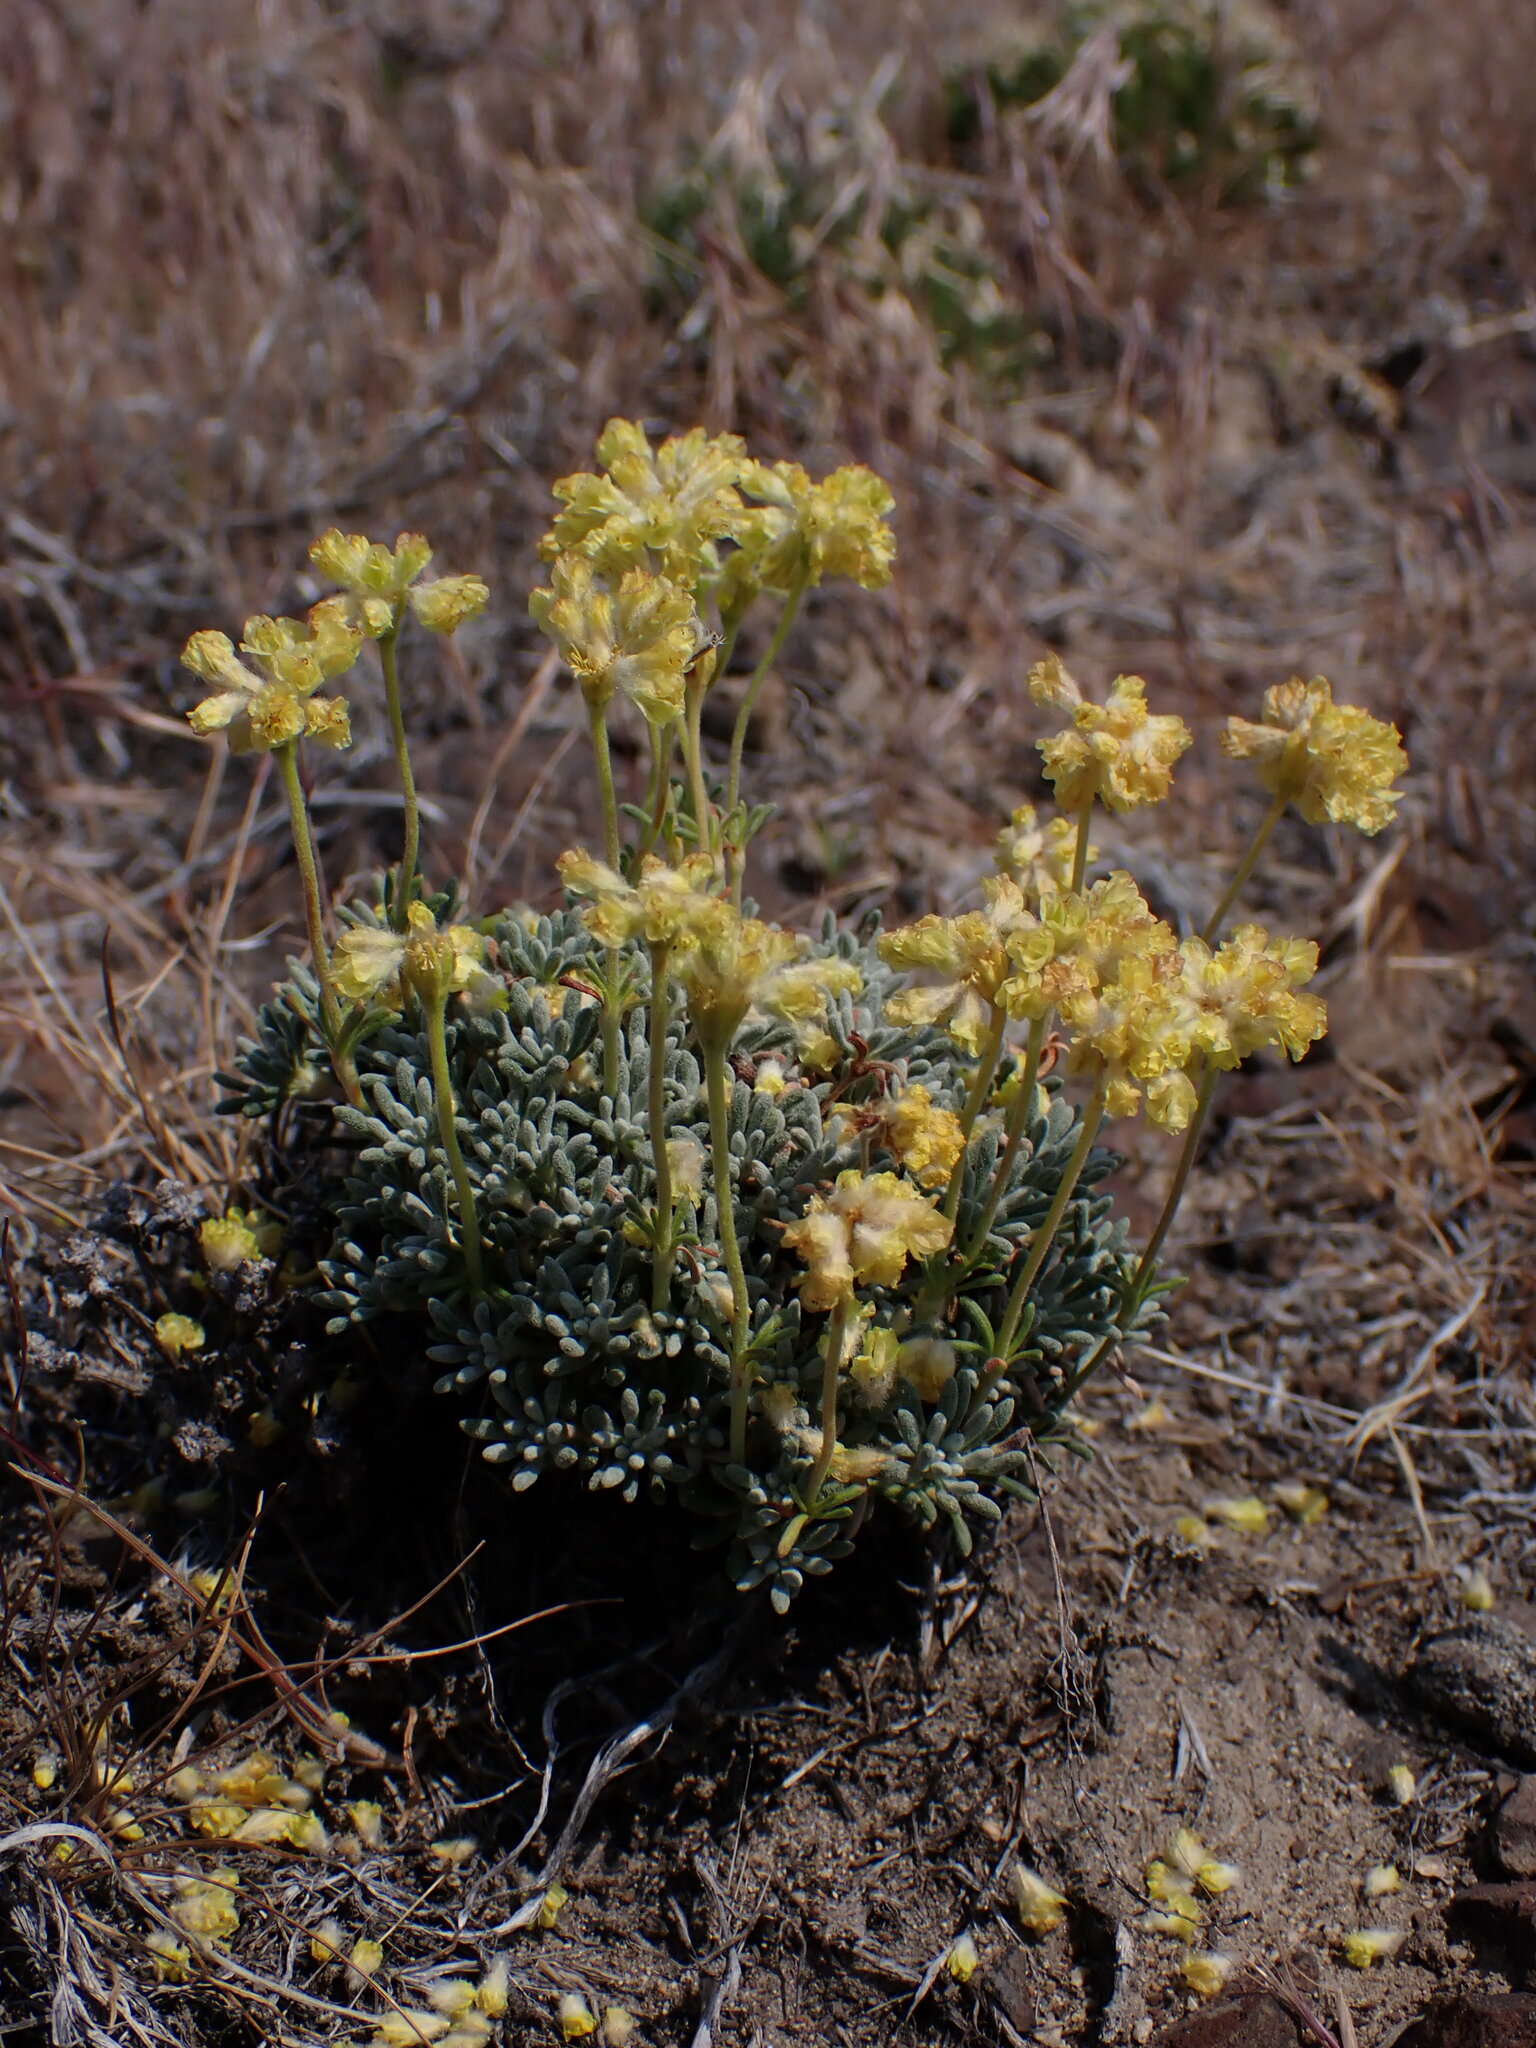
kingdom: Plantae
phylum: Tracheophyta
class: Magnoliopsida
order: Caryophyllales
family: Polygonaceae
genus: Eriogonum
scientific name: Eriogonum thymoides
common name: Thyme-leaf wild buckwheat
